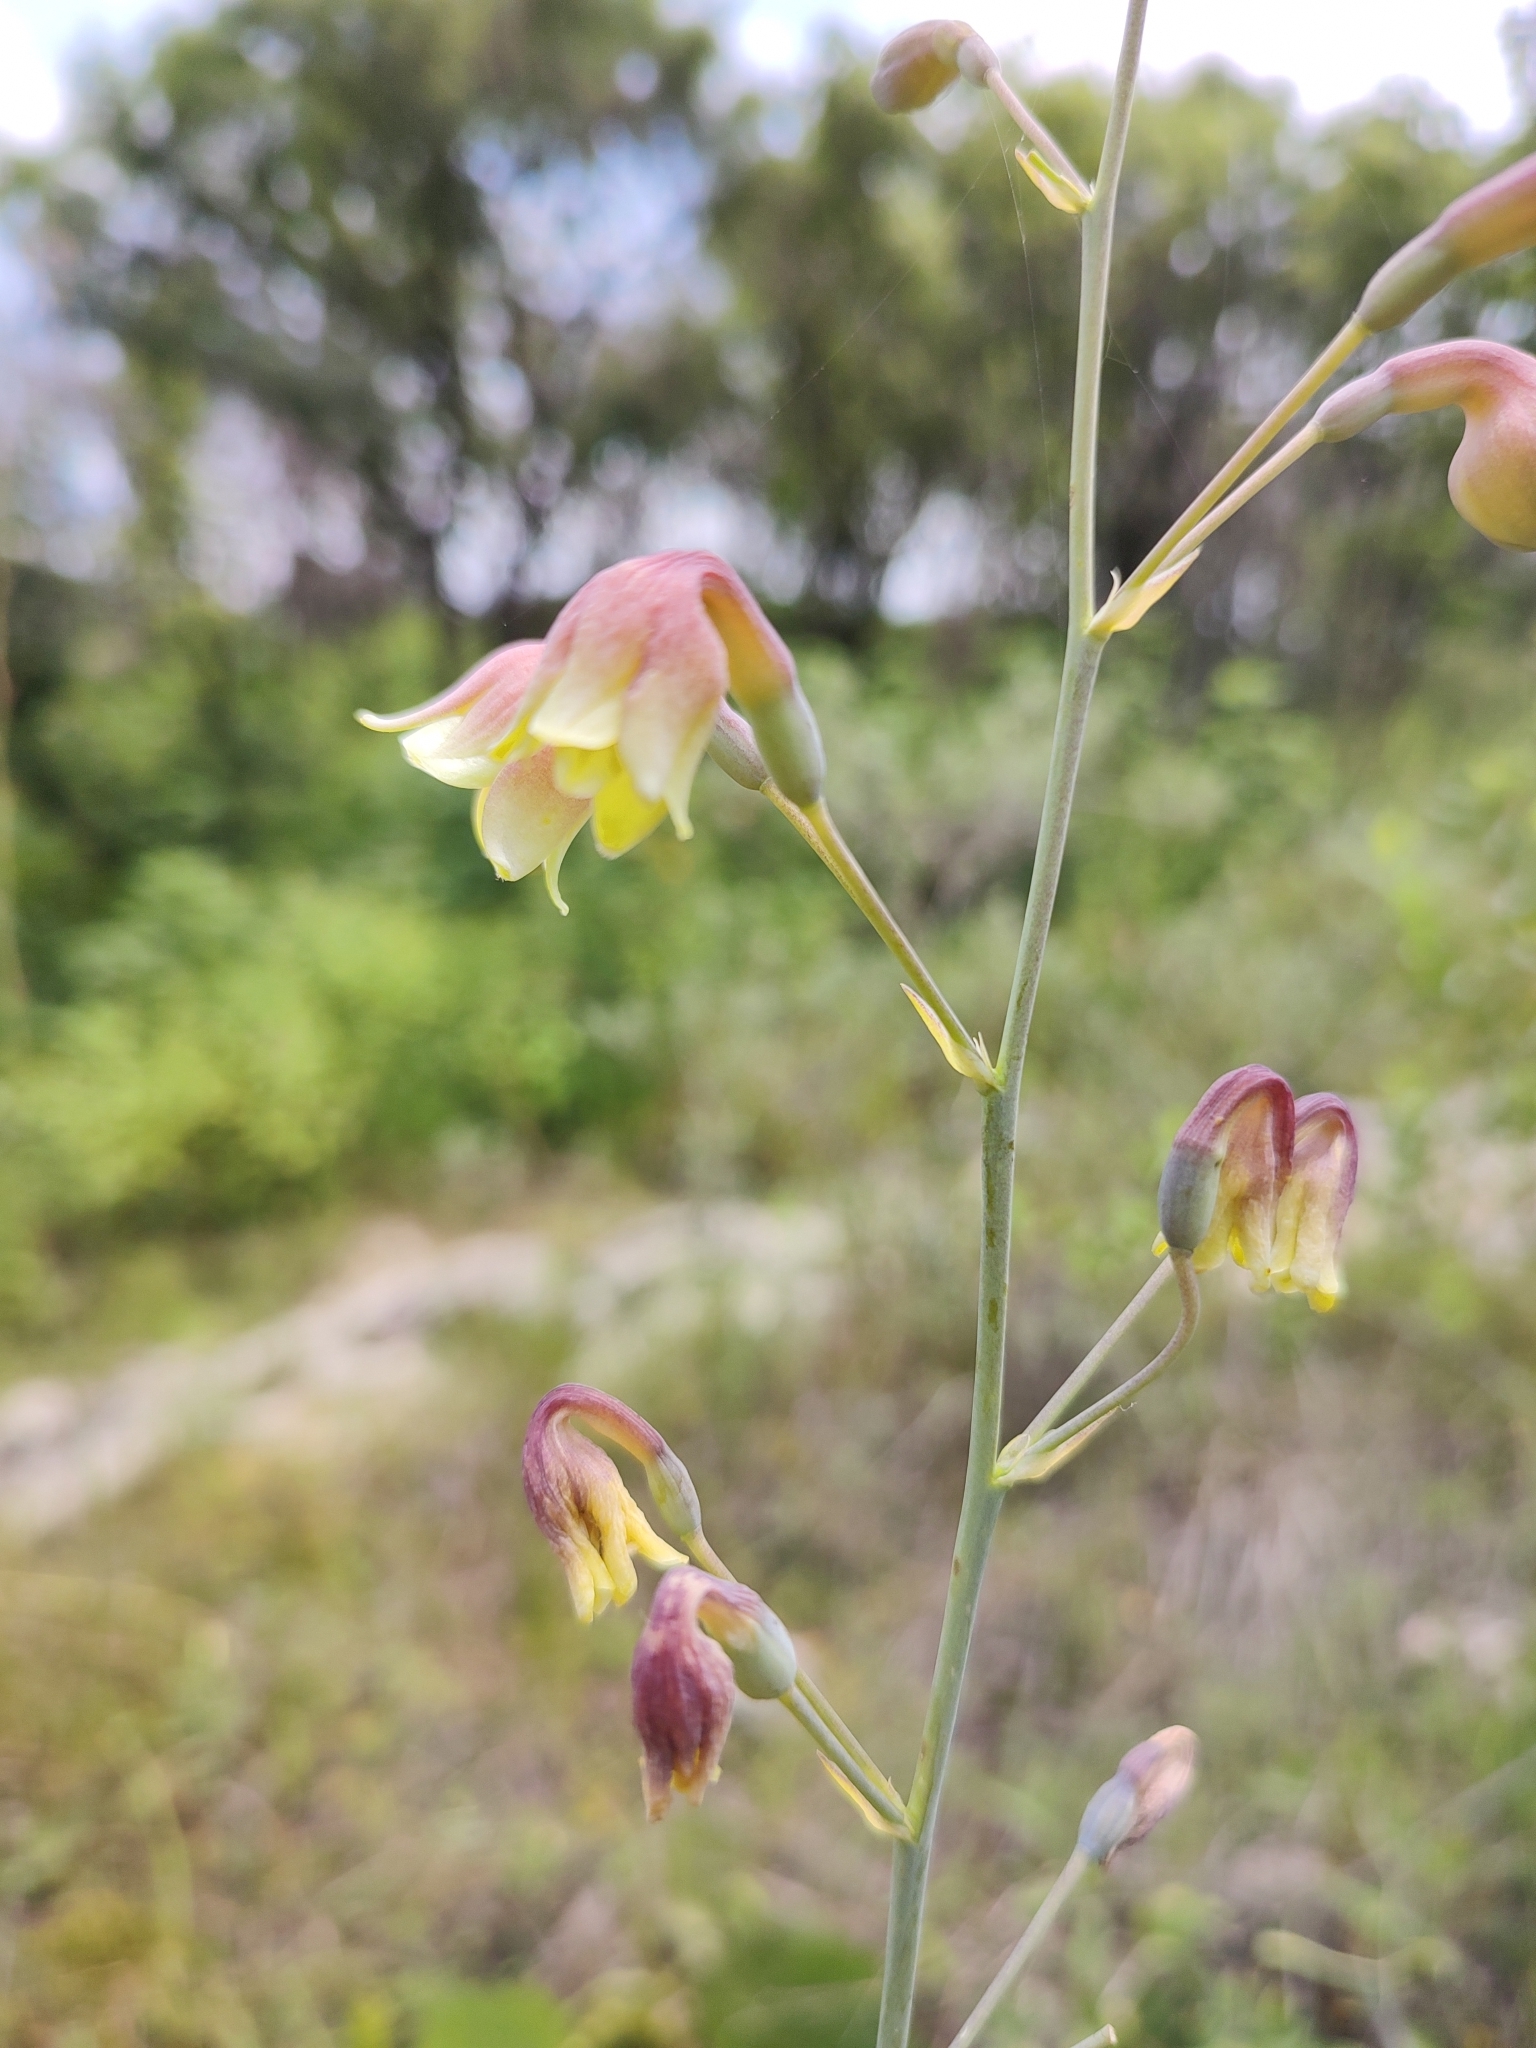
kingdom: Plantae
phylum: Tracheophyta
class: Liliopsida
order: Asparagales
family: Asparagaceae
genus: Agave
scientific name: Agave bulliana
